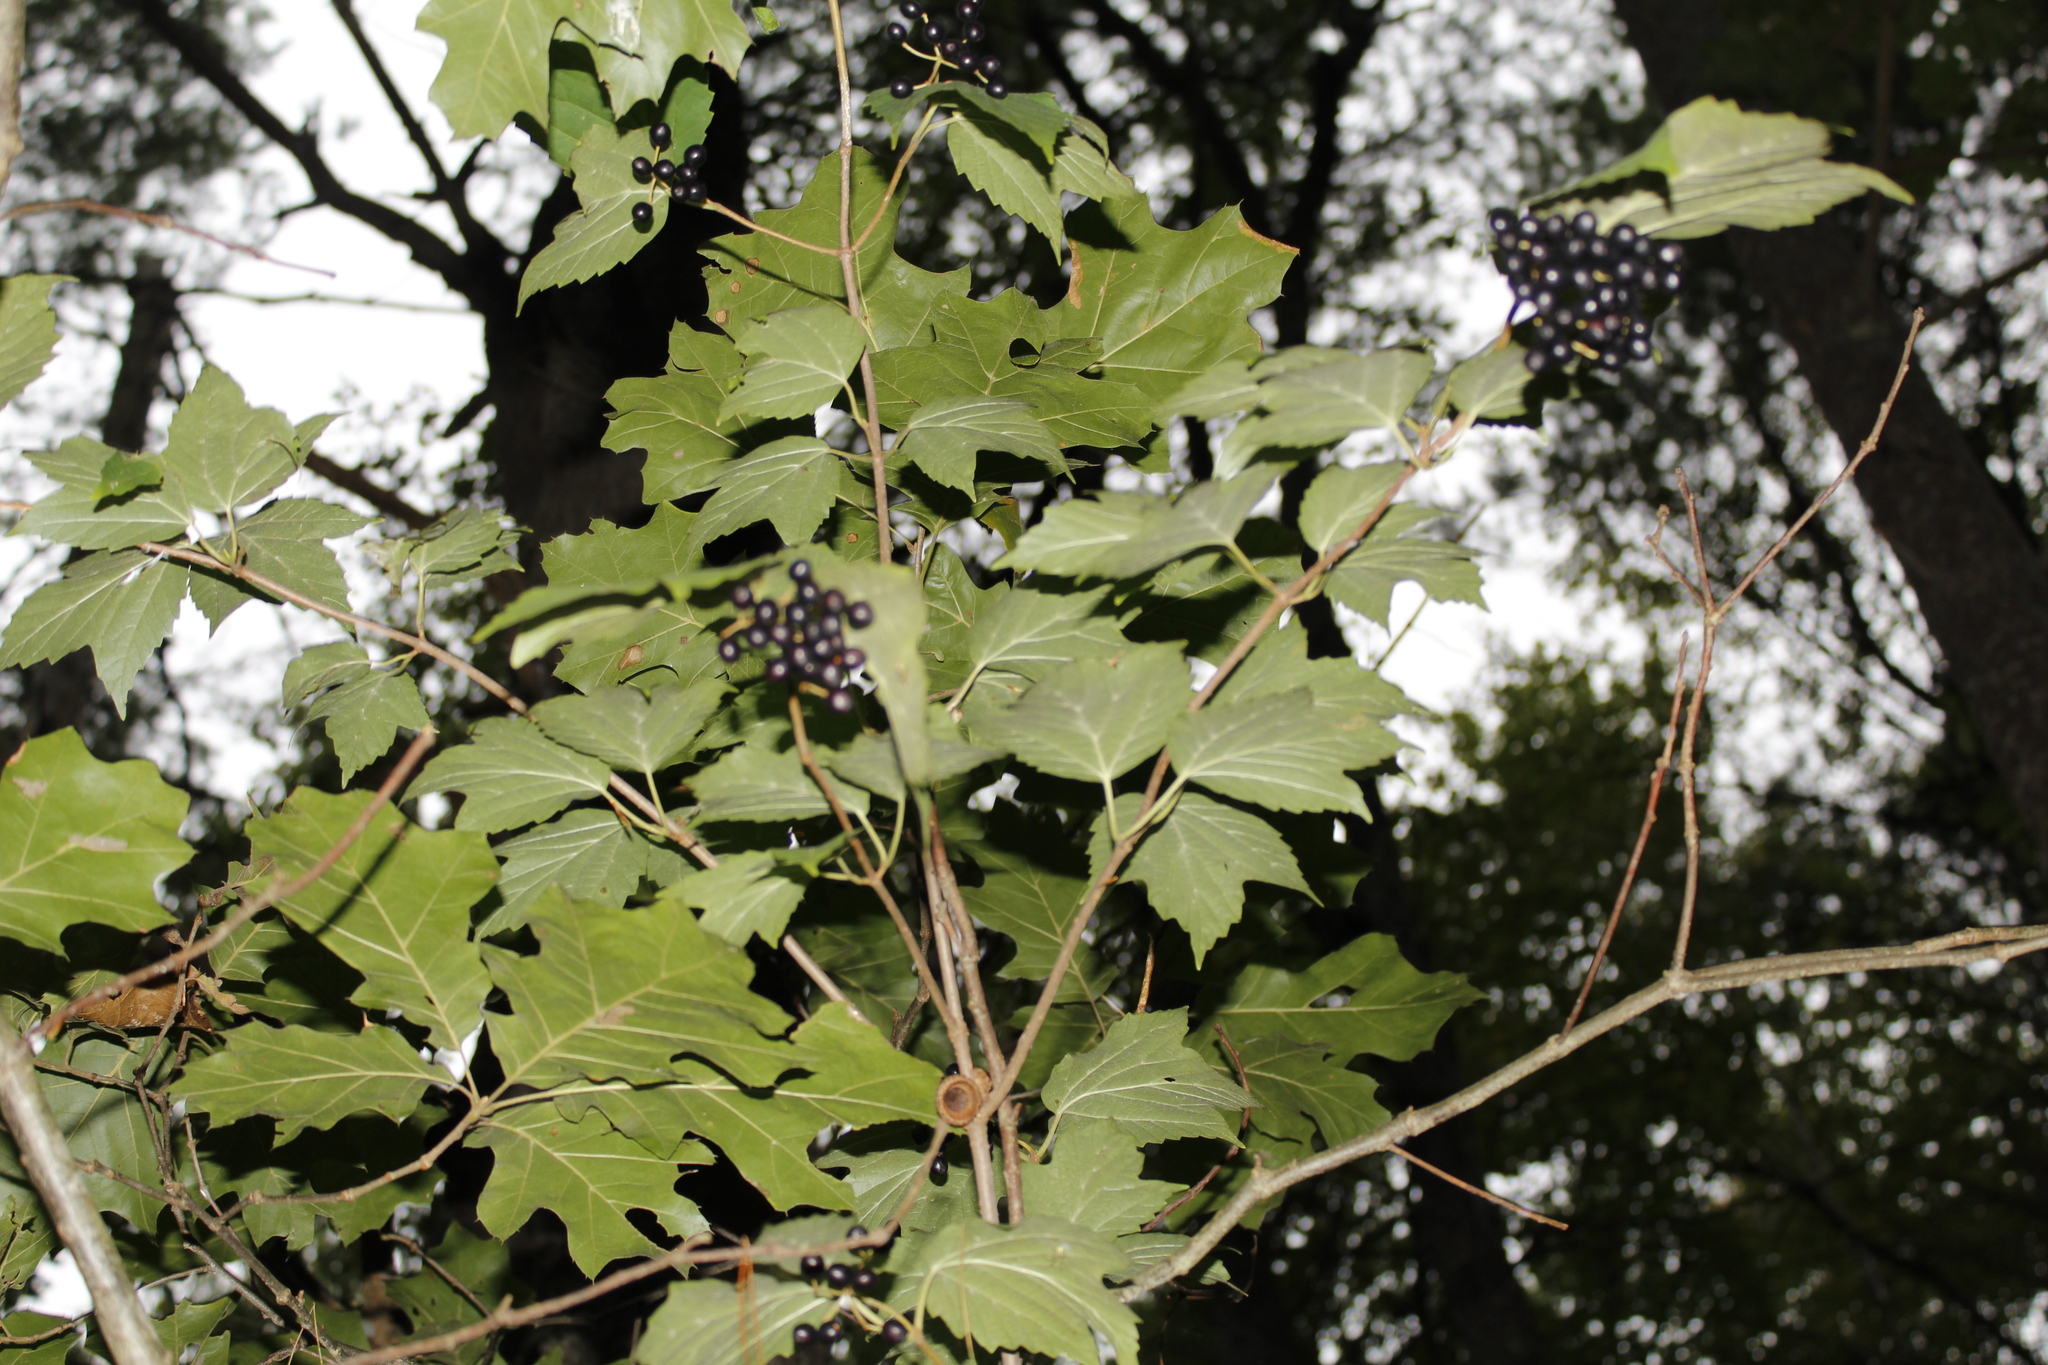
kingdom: Plantae
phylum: Tracheophyta
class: Magnoliopsida
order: Dipsacales
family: Viburnaceae
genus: Viburnum
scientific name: Viburnum acerifolium
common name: Dockmackie
